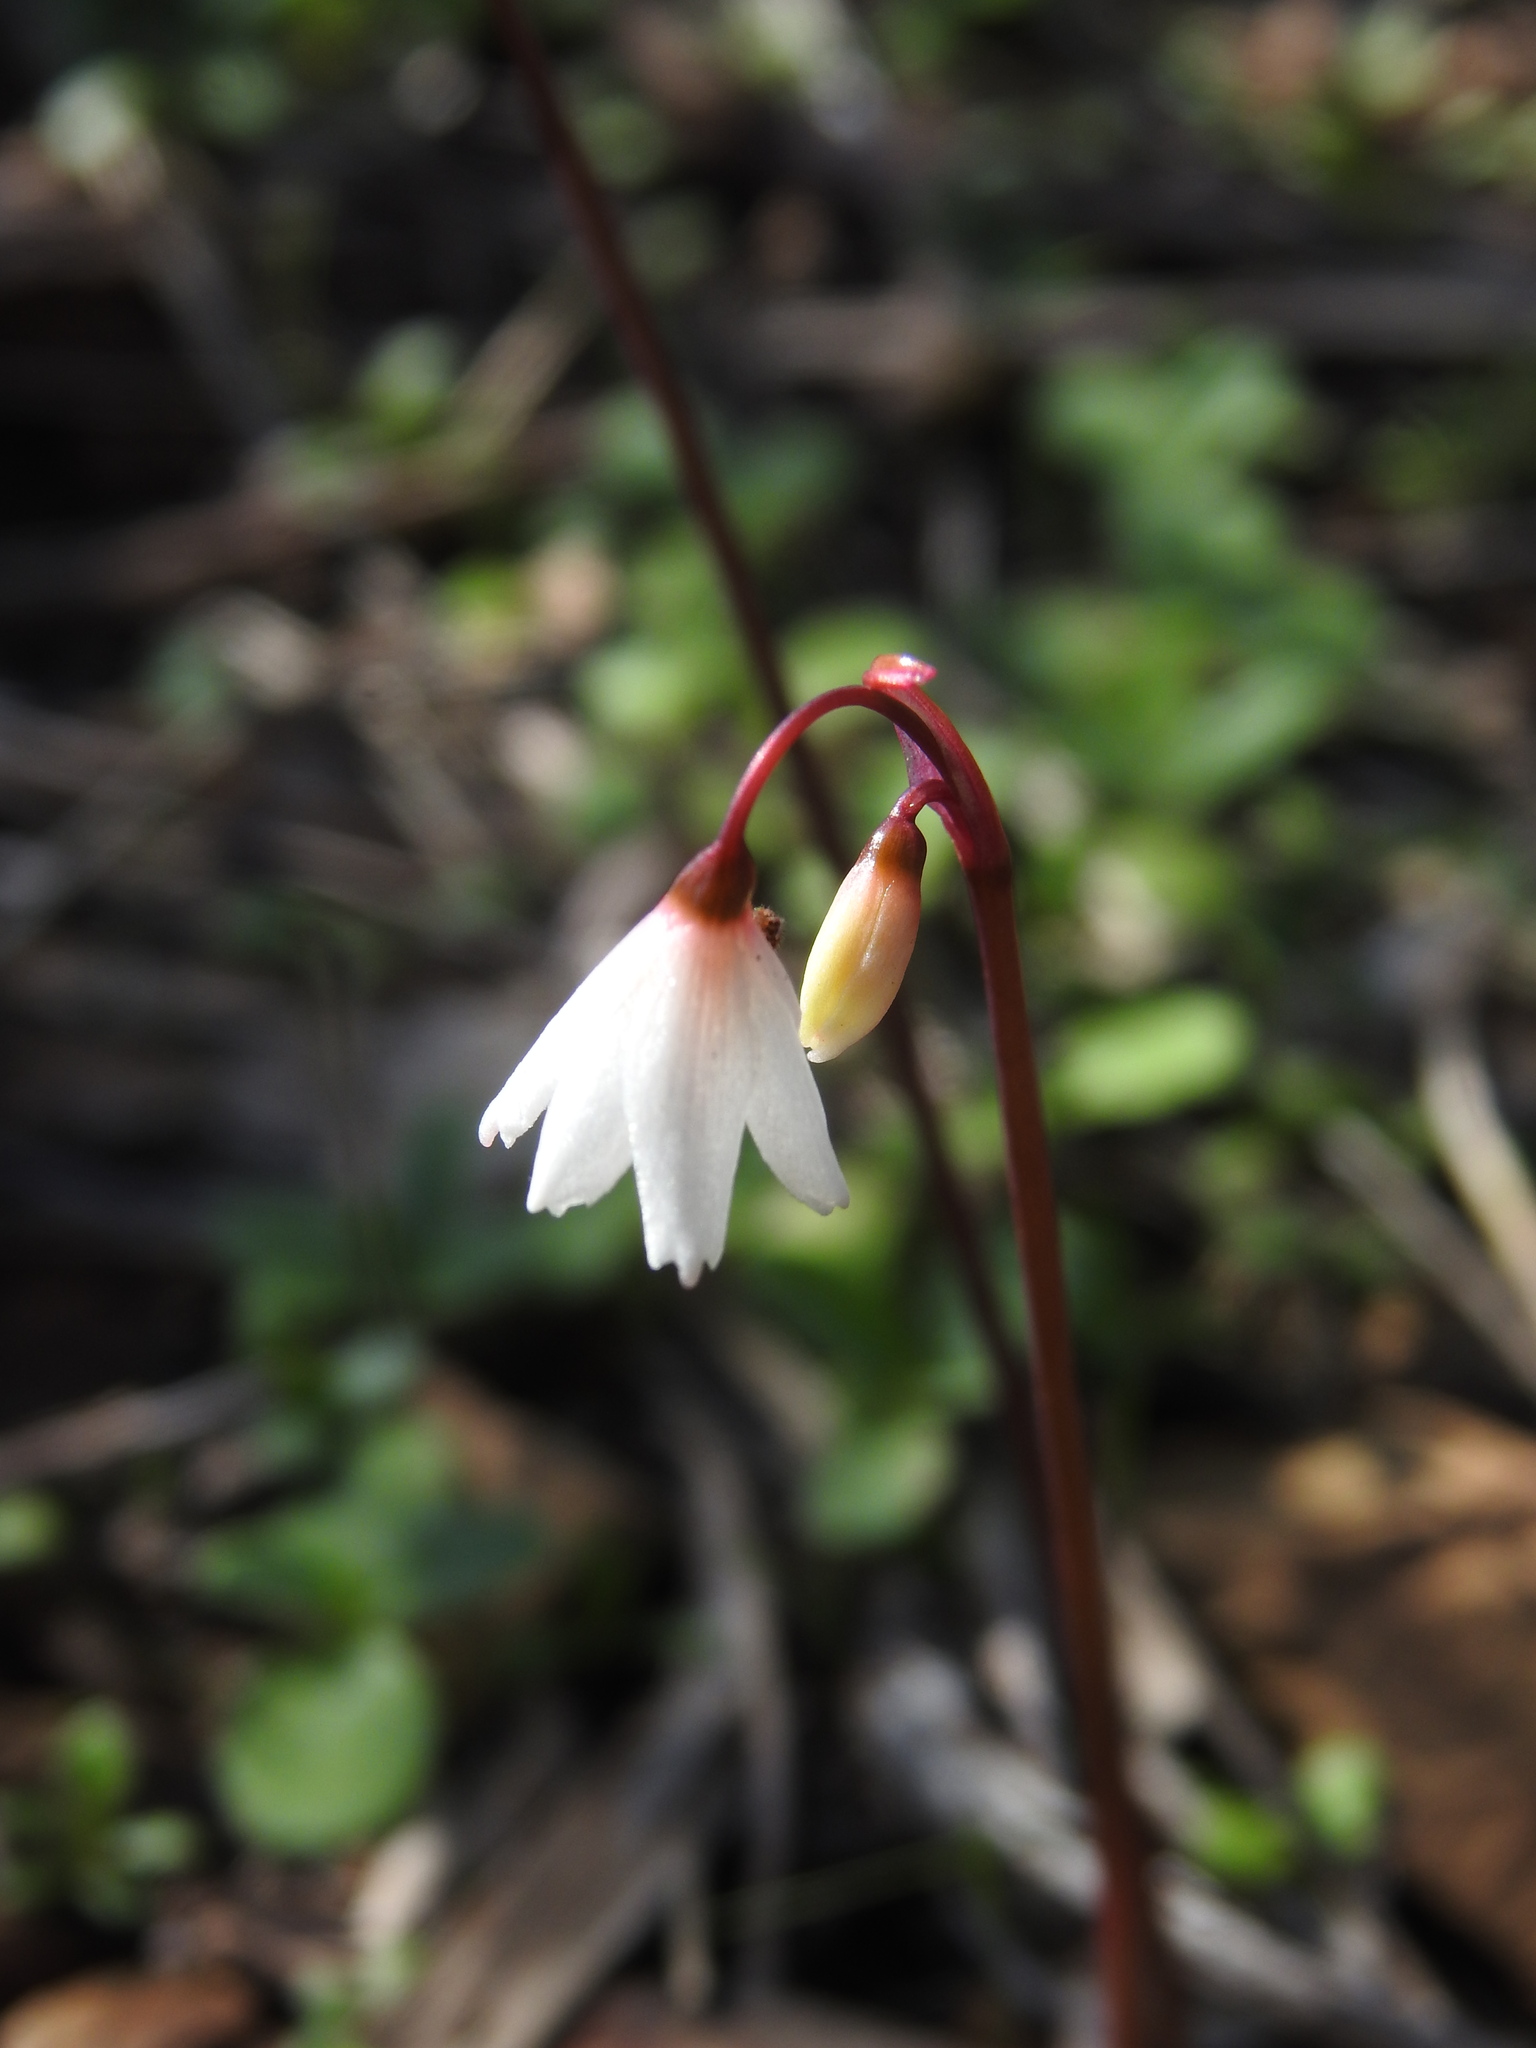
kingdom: Plantae
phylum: Tracheophyta
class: Liliopsida
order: Asparagales
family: Amaryllidaceae
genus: Acis
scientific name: Acis autumnalis
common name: Autumn snowflake
